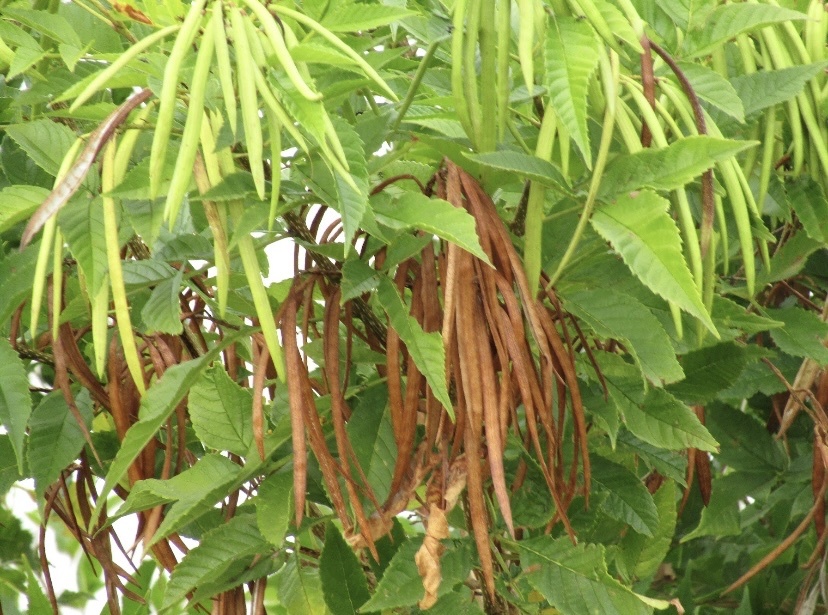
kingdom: Plantae
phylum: Tracheophyta
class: Magnoliopsida
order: Lamiales
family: Bignoniaceae
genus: Tecoma
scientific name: Tecoma stans
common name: Yellow trumpetbush
